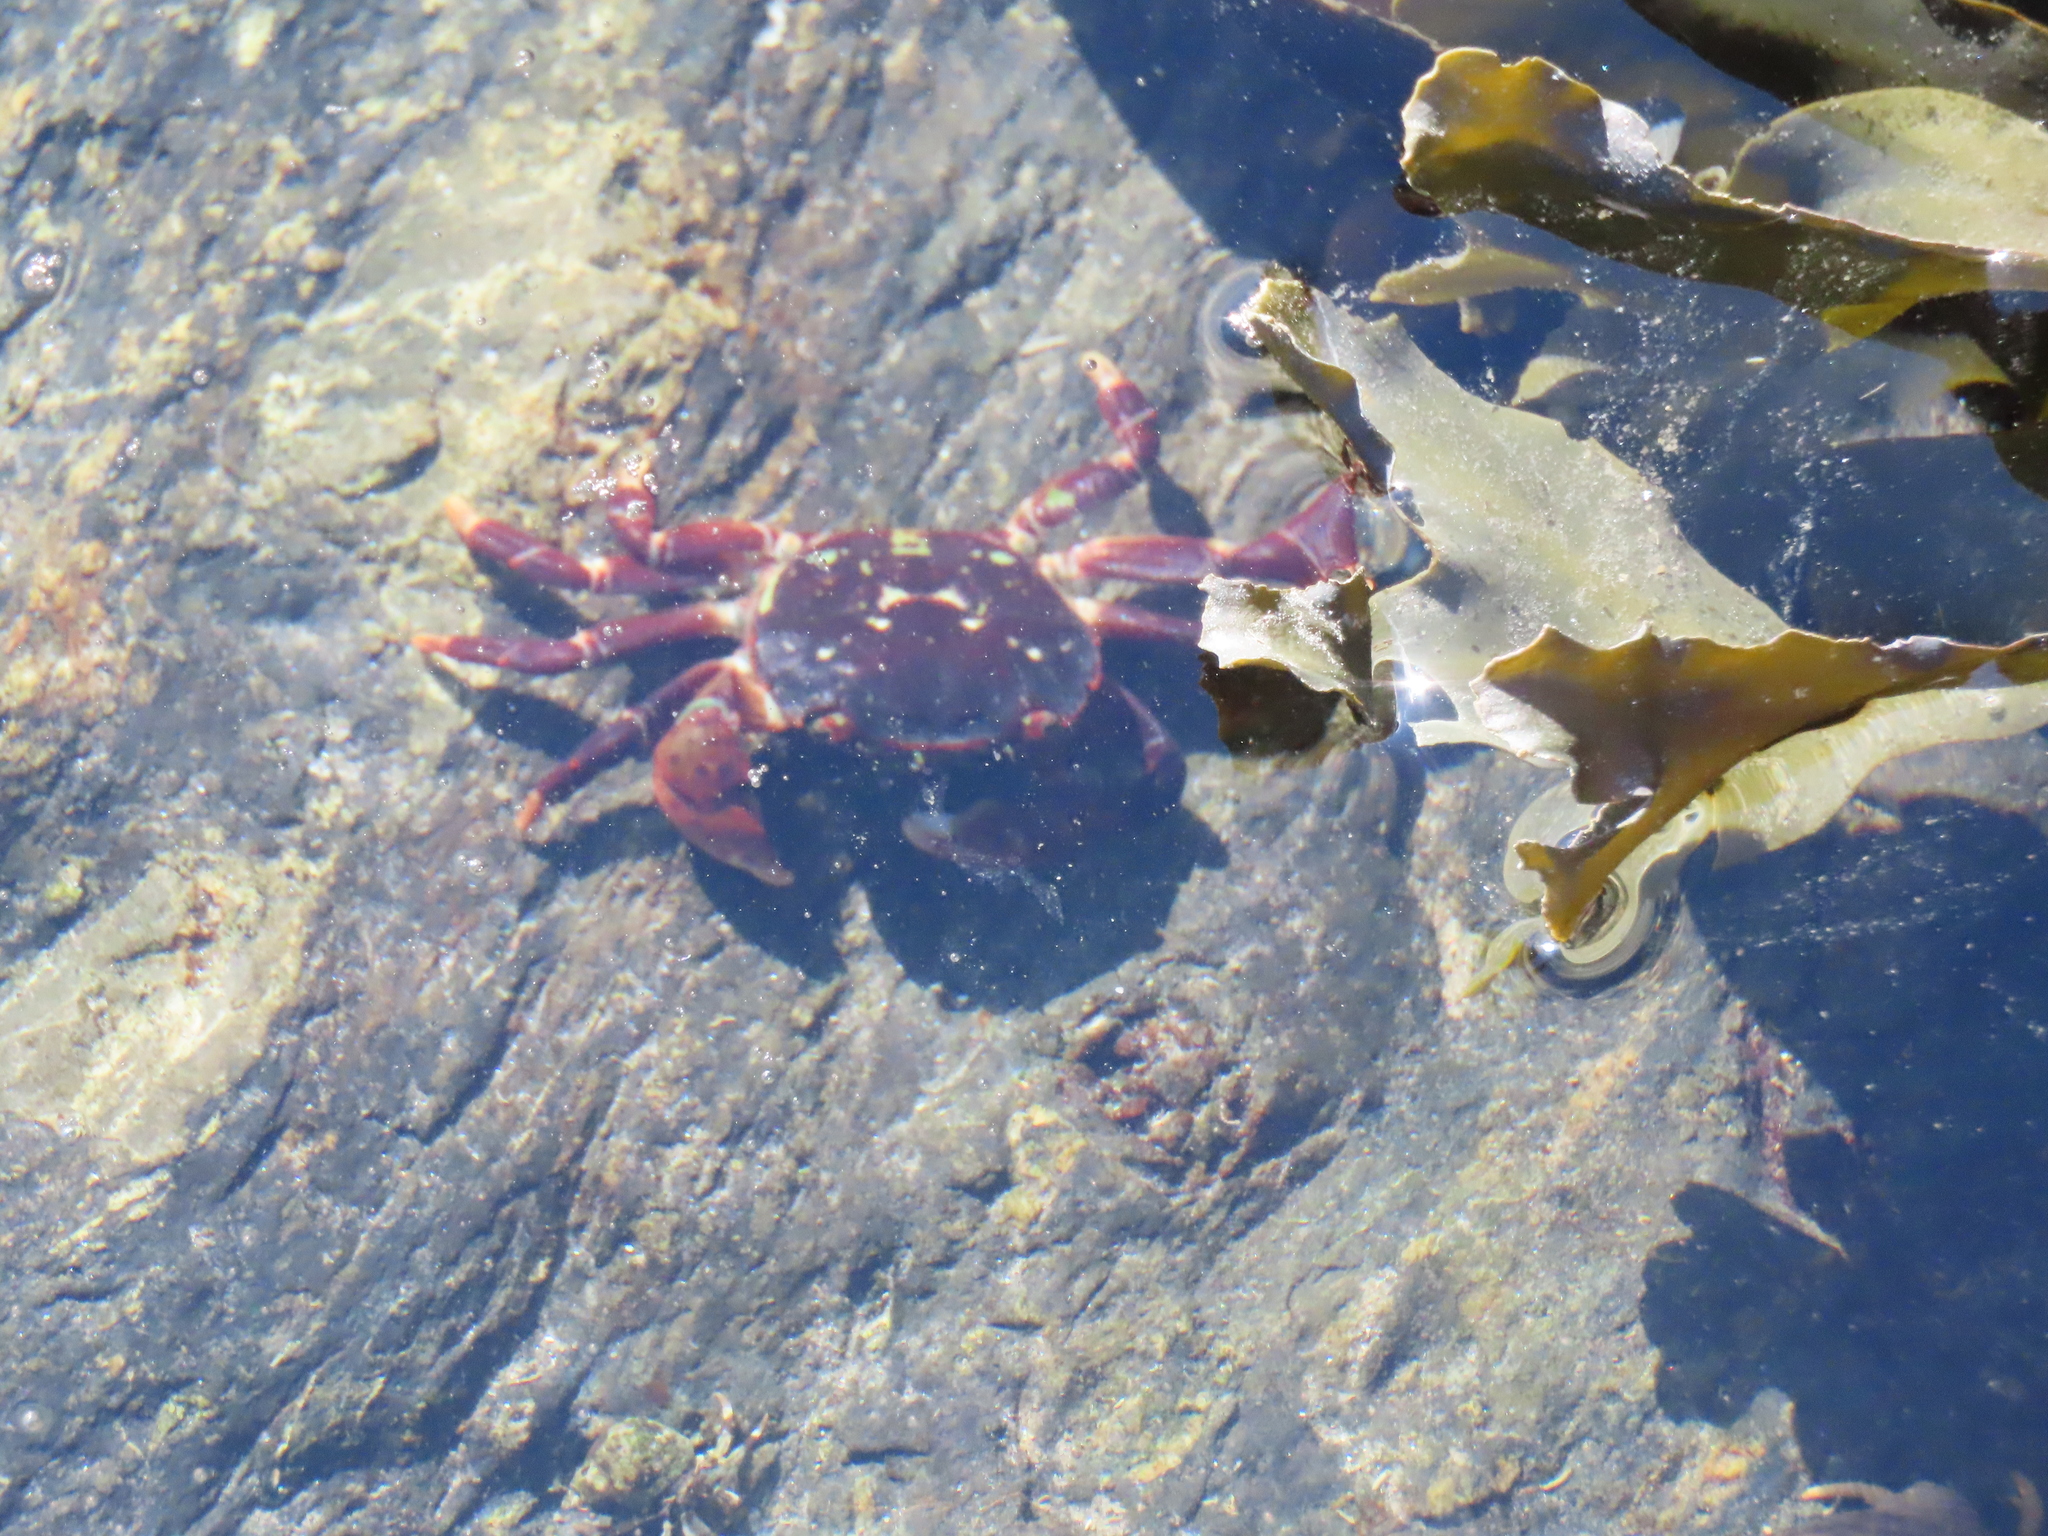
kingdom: Animalia
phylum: Arthropoda
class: Malacostraca
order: Decapoda
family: Varunidae
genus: Hemigrapsus
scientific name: Hemigrapsus nudus
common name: Purple shore crab
